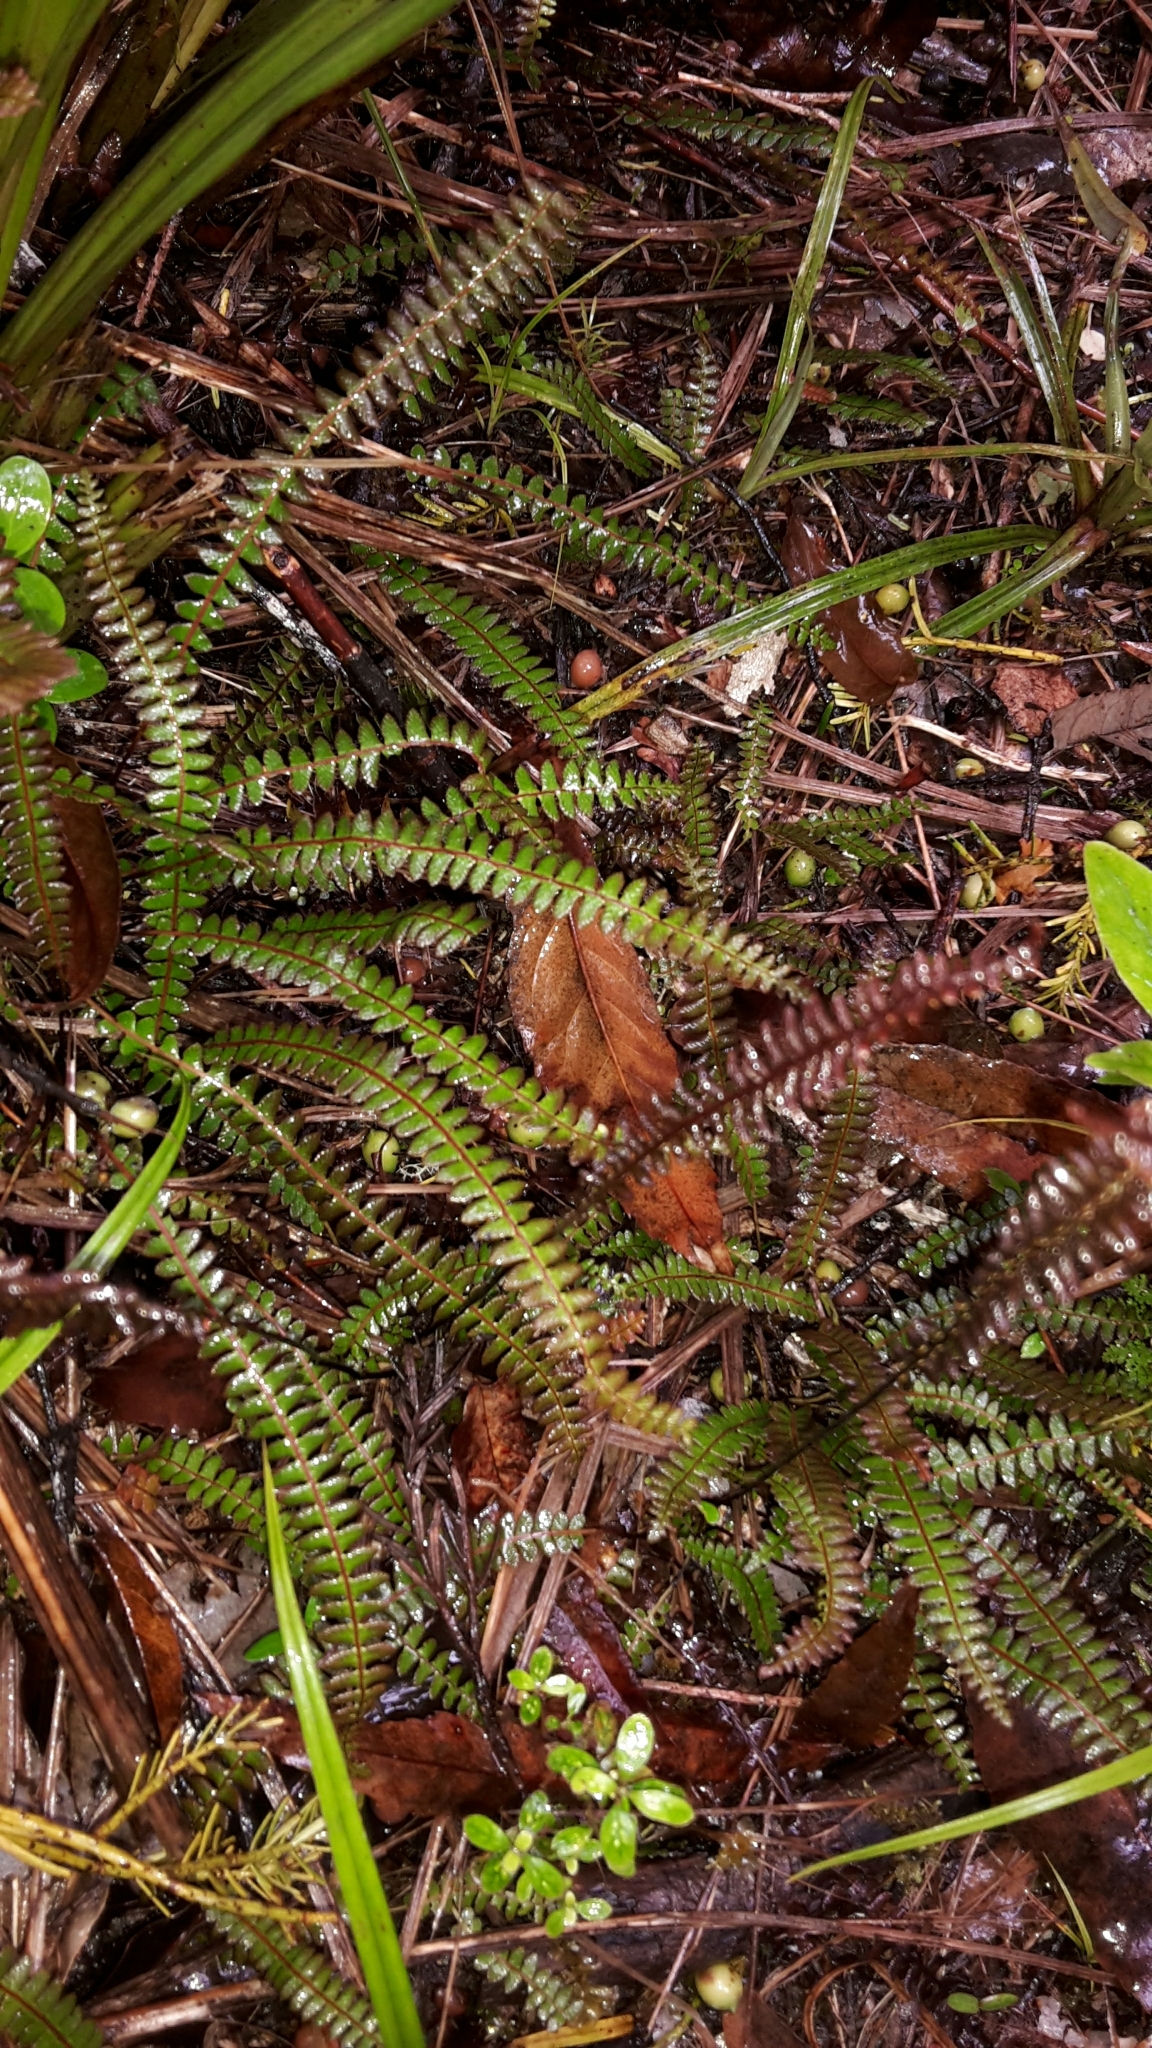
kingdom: Plantae
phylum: Tracheophyta
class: Polypodiopsida
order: Polypodiales
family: Blechnaceae
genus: Austroblechnum
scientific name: Austroblechnum penna-marina
